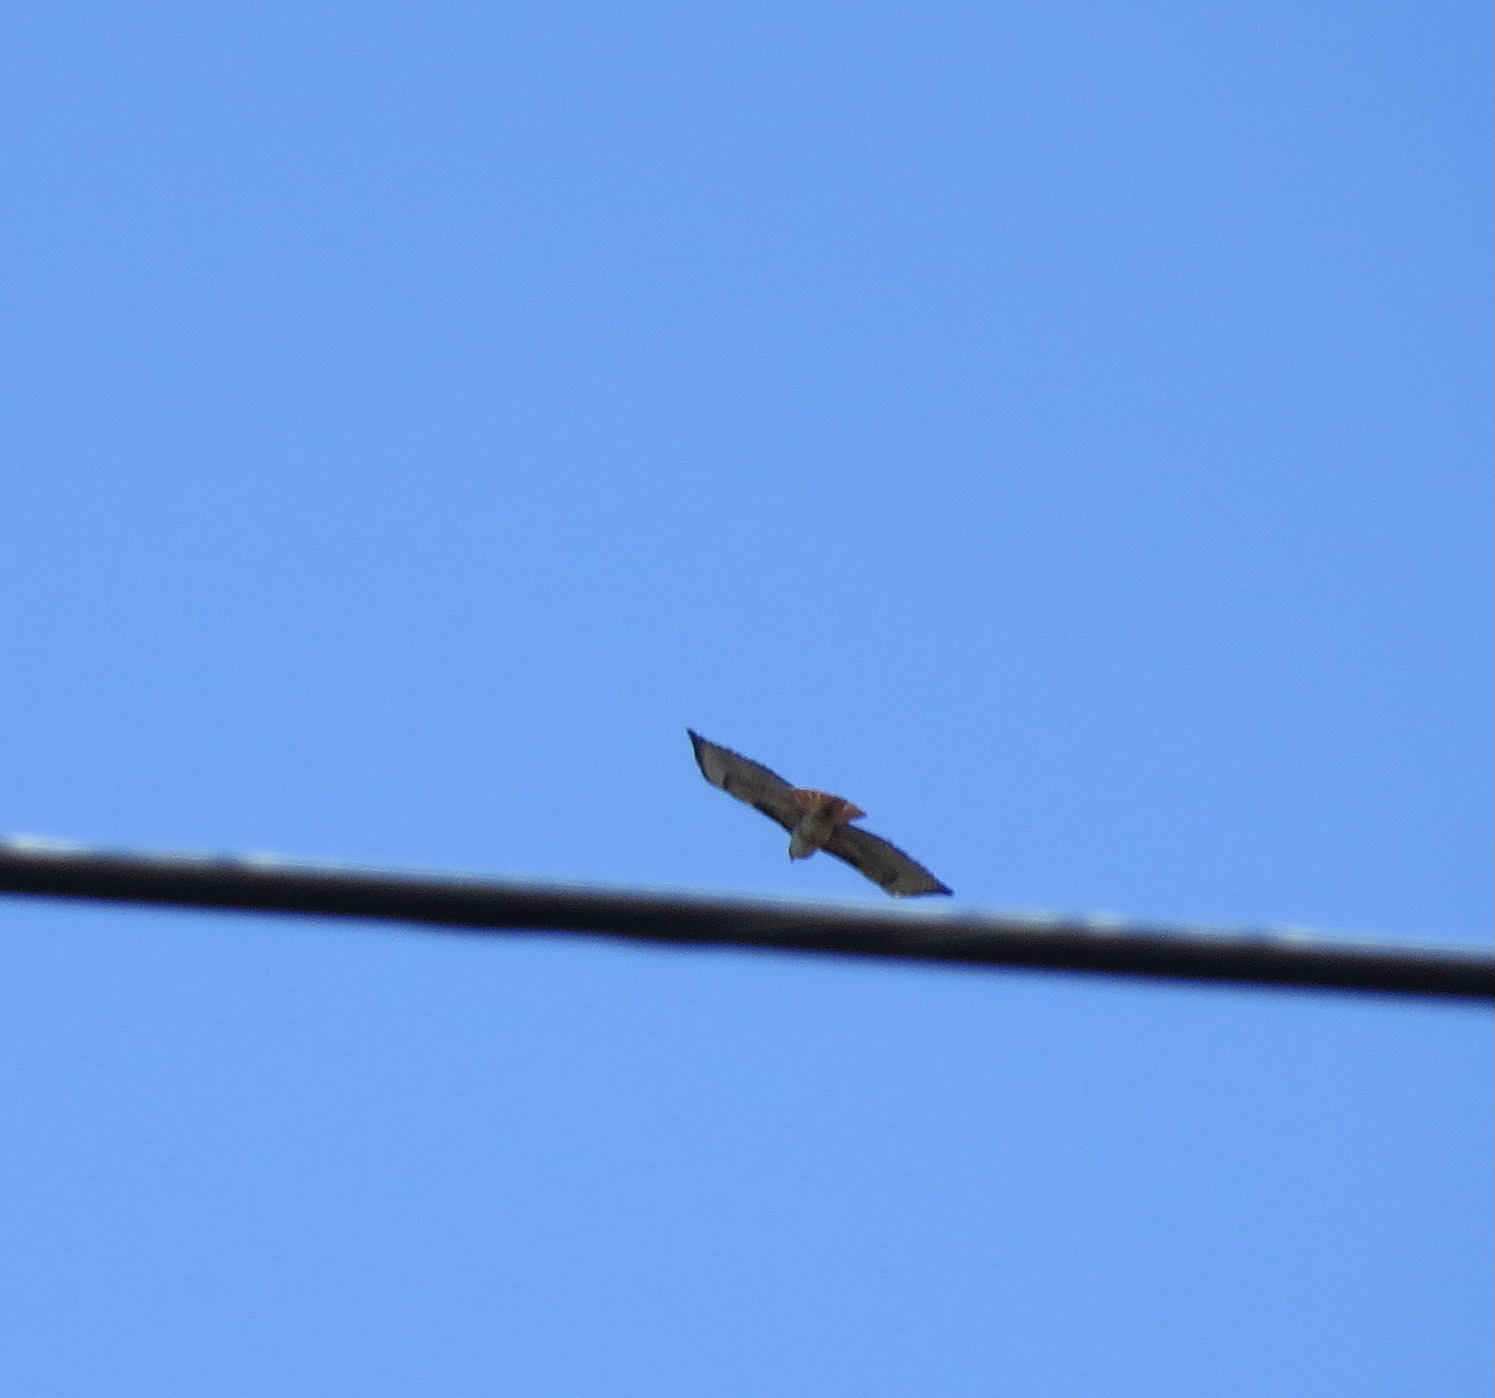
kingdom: Animalia
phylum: Chordata
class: Aves
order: Accipitriformes
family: Accipitridae
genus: Buteo
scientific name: Buteo jamaicensis
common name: Red-tailed hawk
